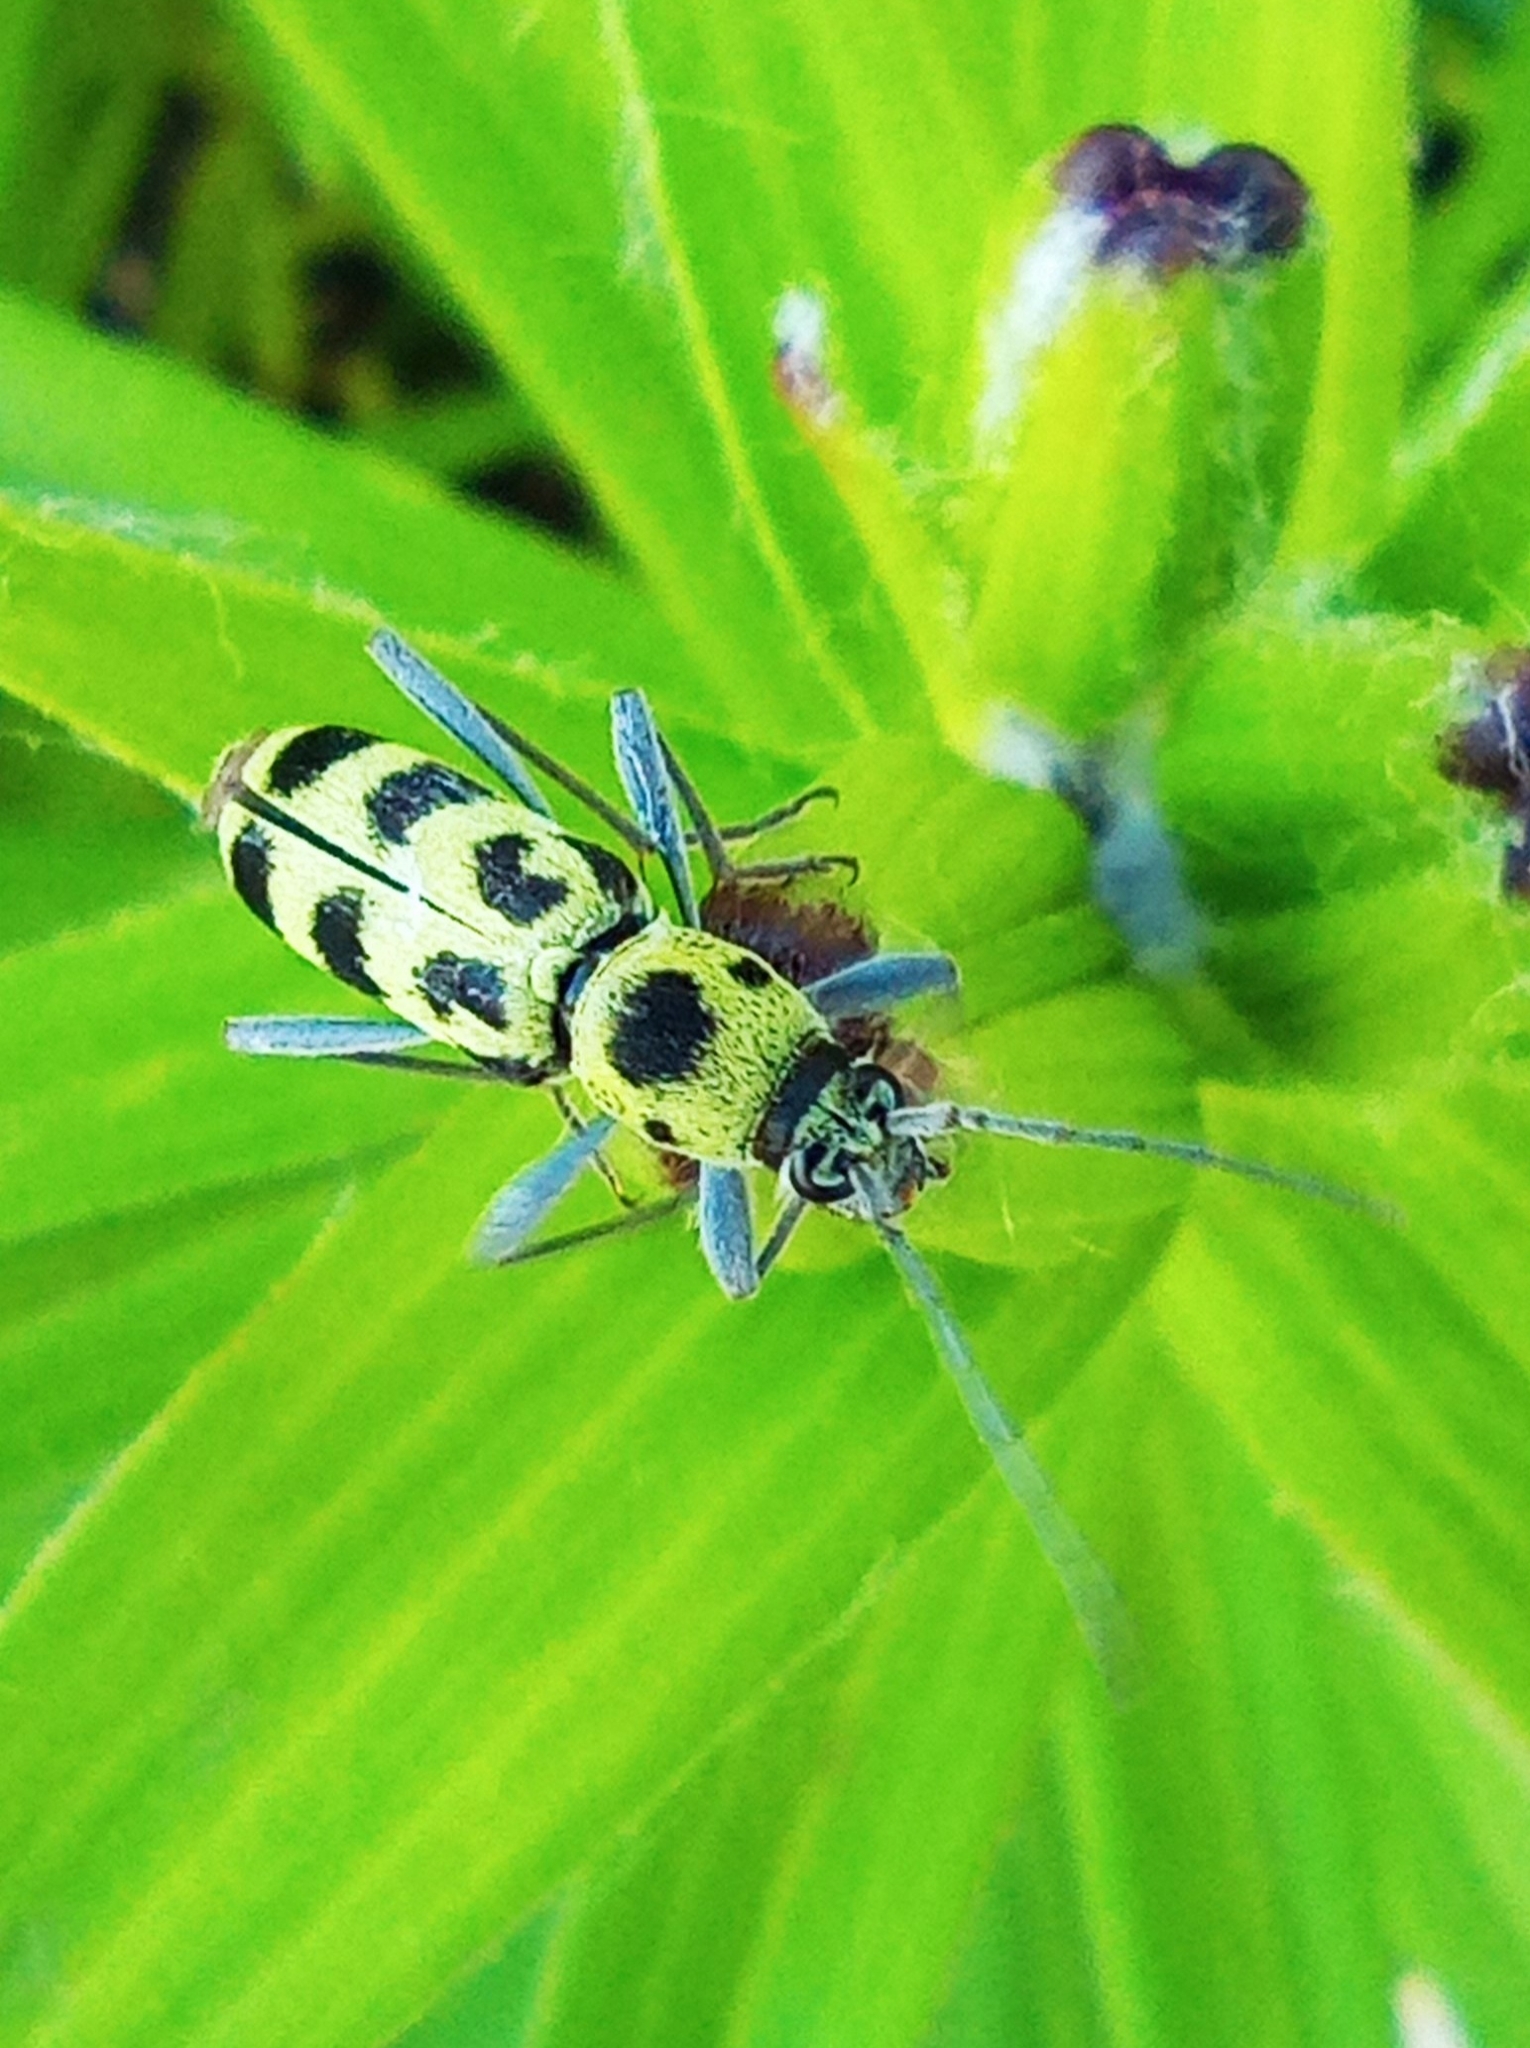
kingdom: Animalia
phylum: Arthropoda
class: Insecta
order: Coleoptera
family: Cerambycidae
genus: Chlorophorus
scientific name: Chlorophorus herbstii
